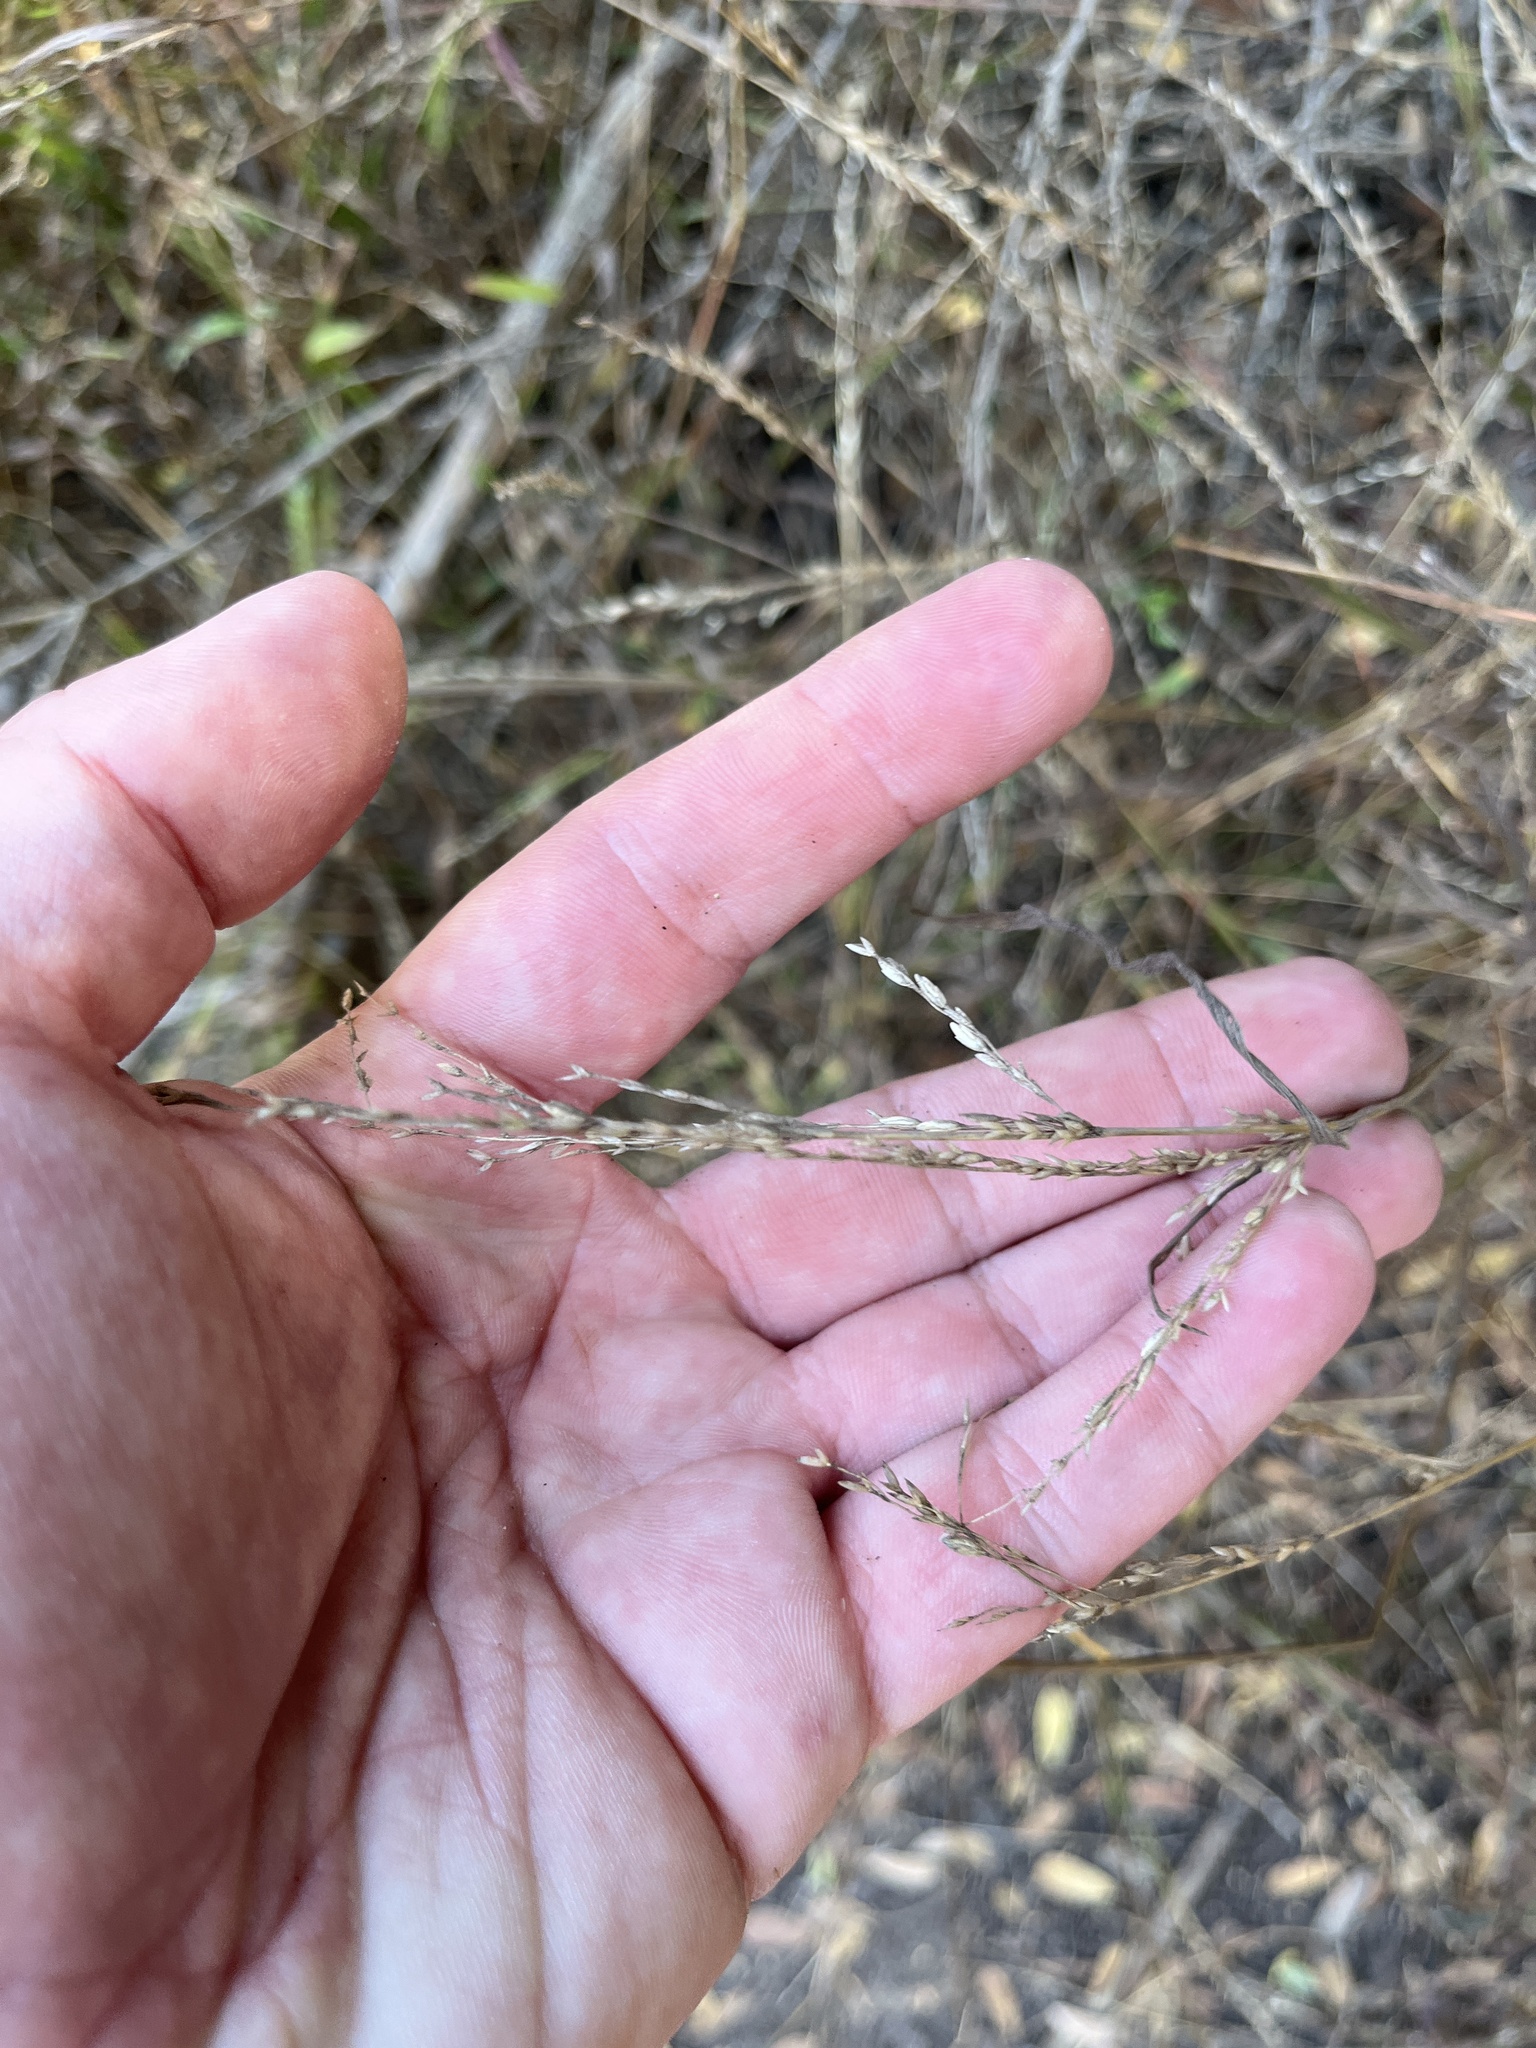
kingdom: Plantae
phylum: Tracheophyta
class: Liliopsida
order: Poales
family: Poaceae
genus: Ehrharta
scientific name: Ehrharta erecta
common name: Panic veldtgrass
